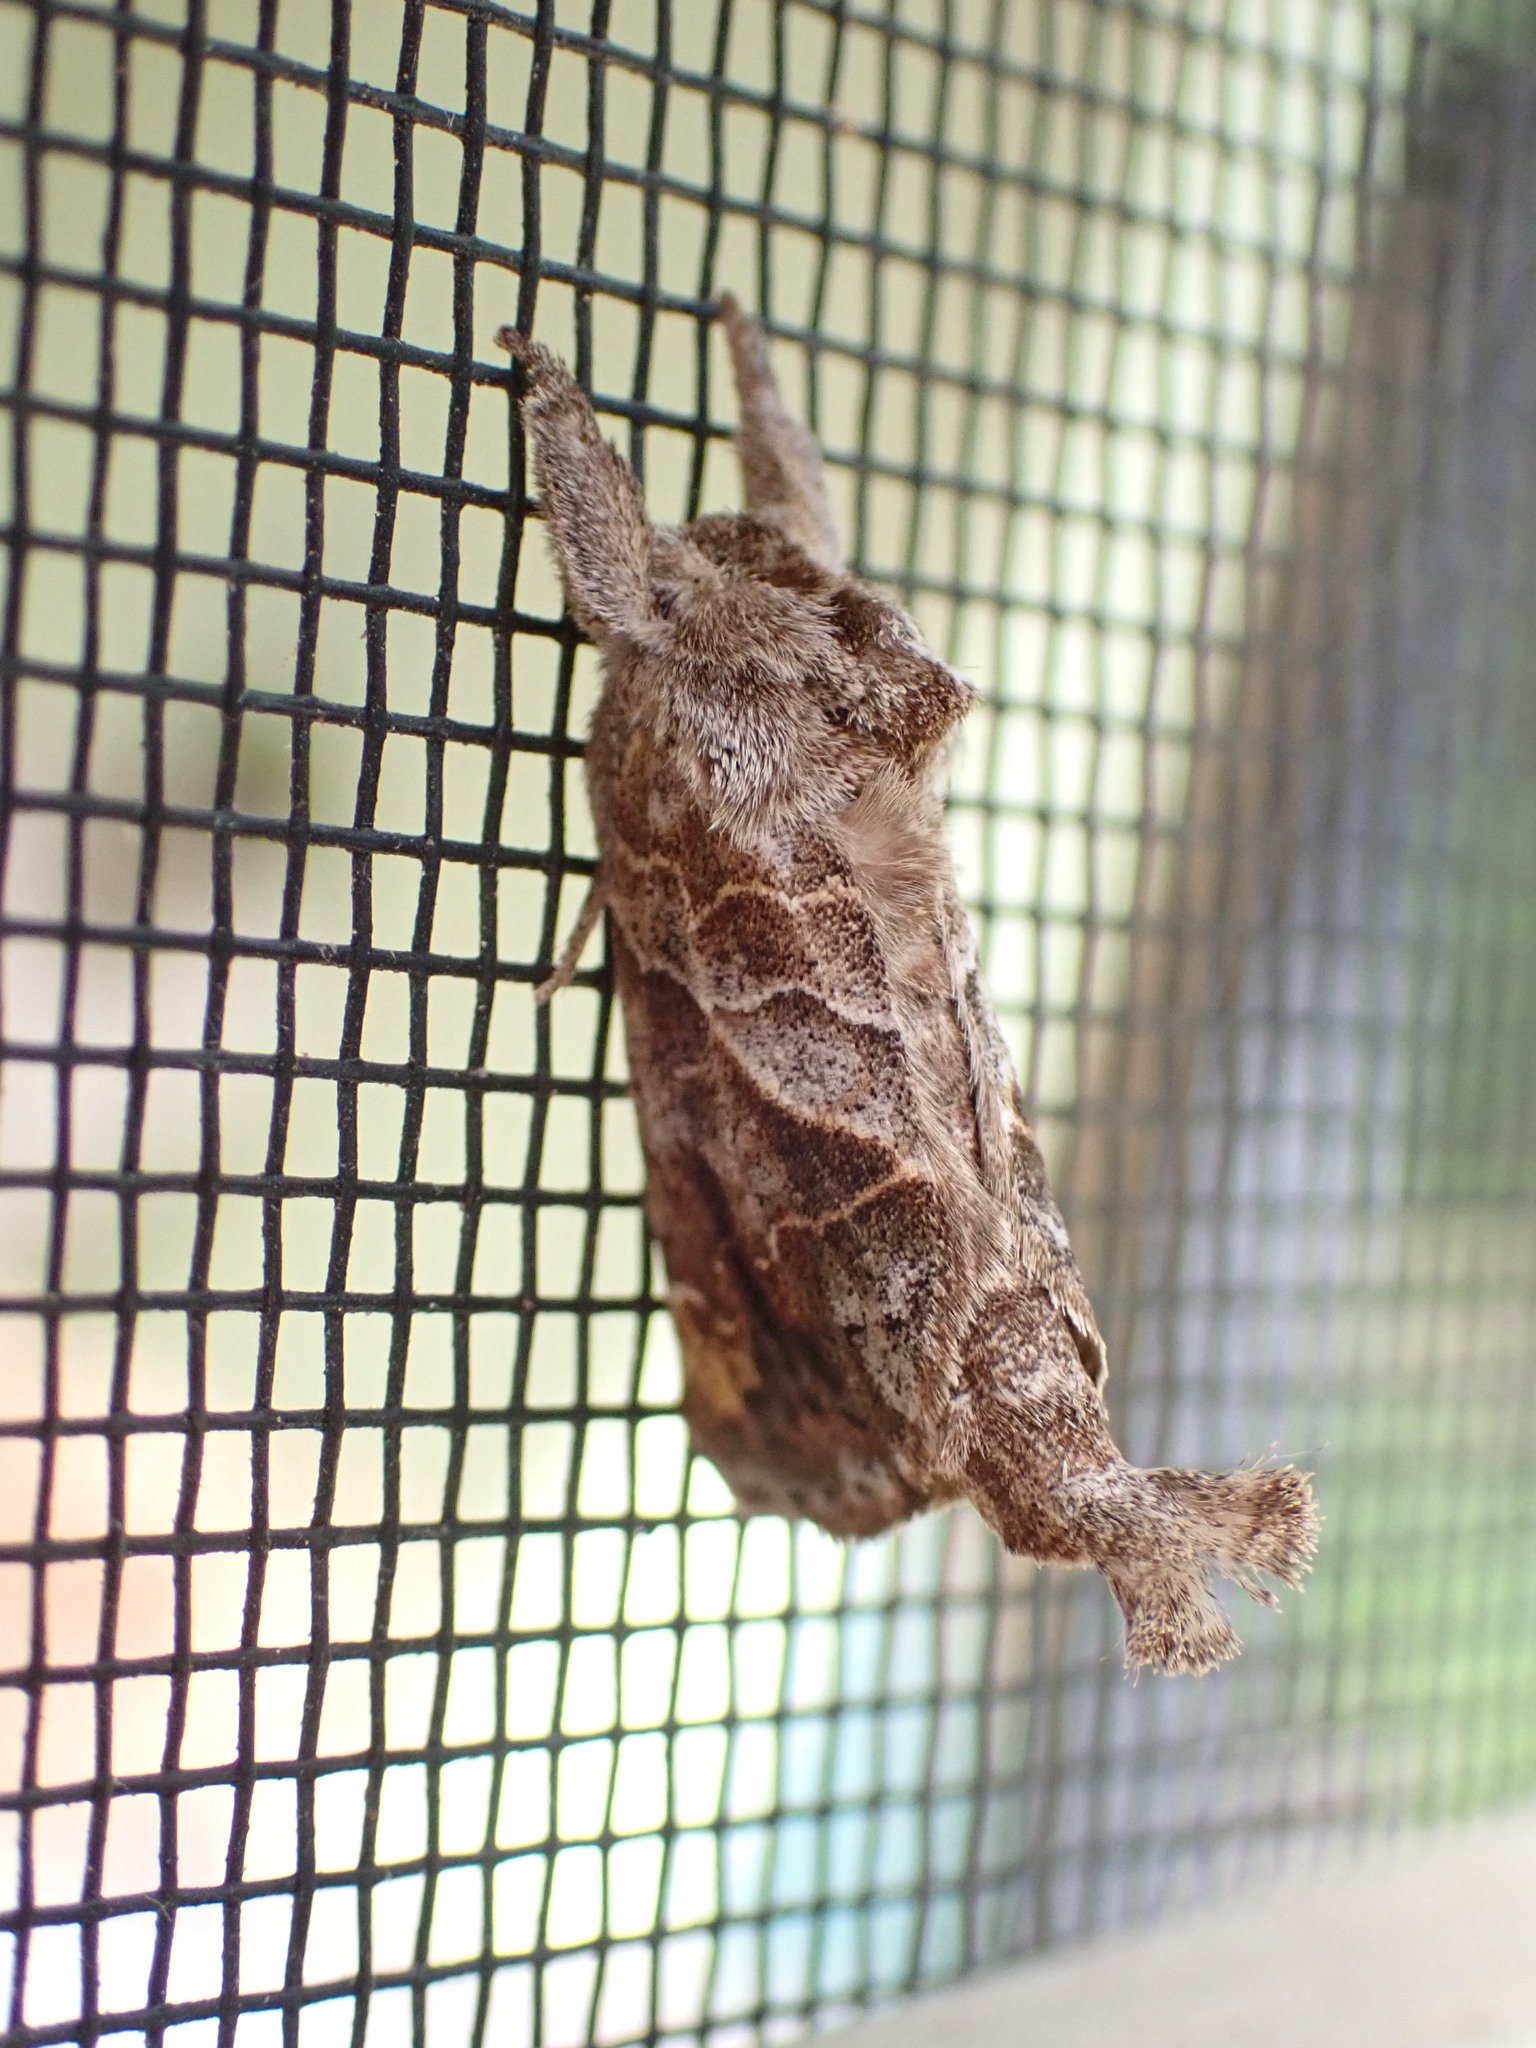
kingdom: Animalia
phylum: Arthropoda
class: Insecta
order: Lepidoptera
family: Notodontidae
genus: Clostera
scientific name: Clostera strigosa
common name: Striped chocolate-tip moth
